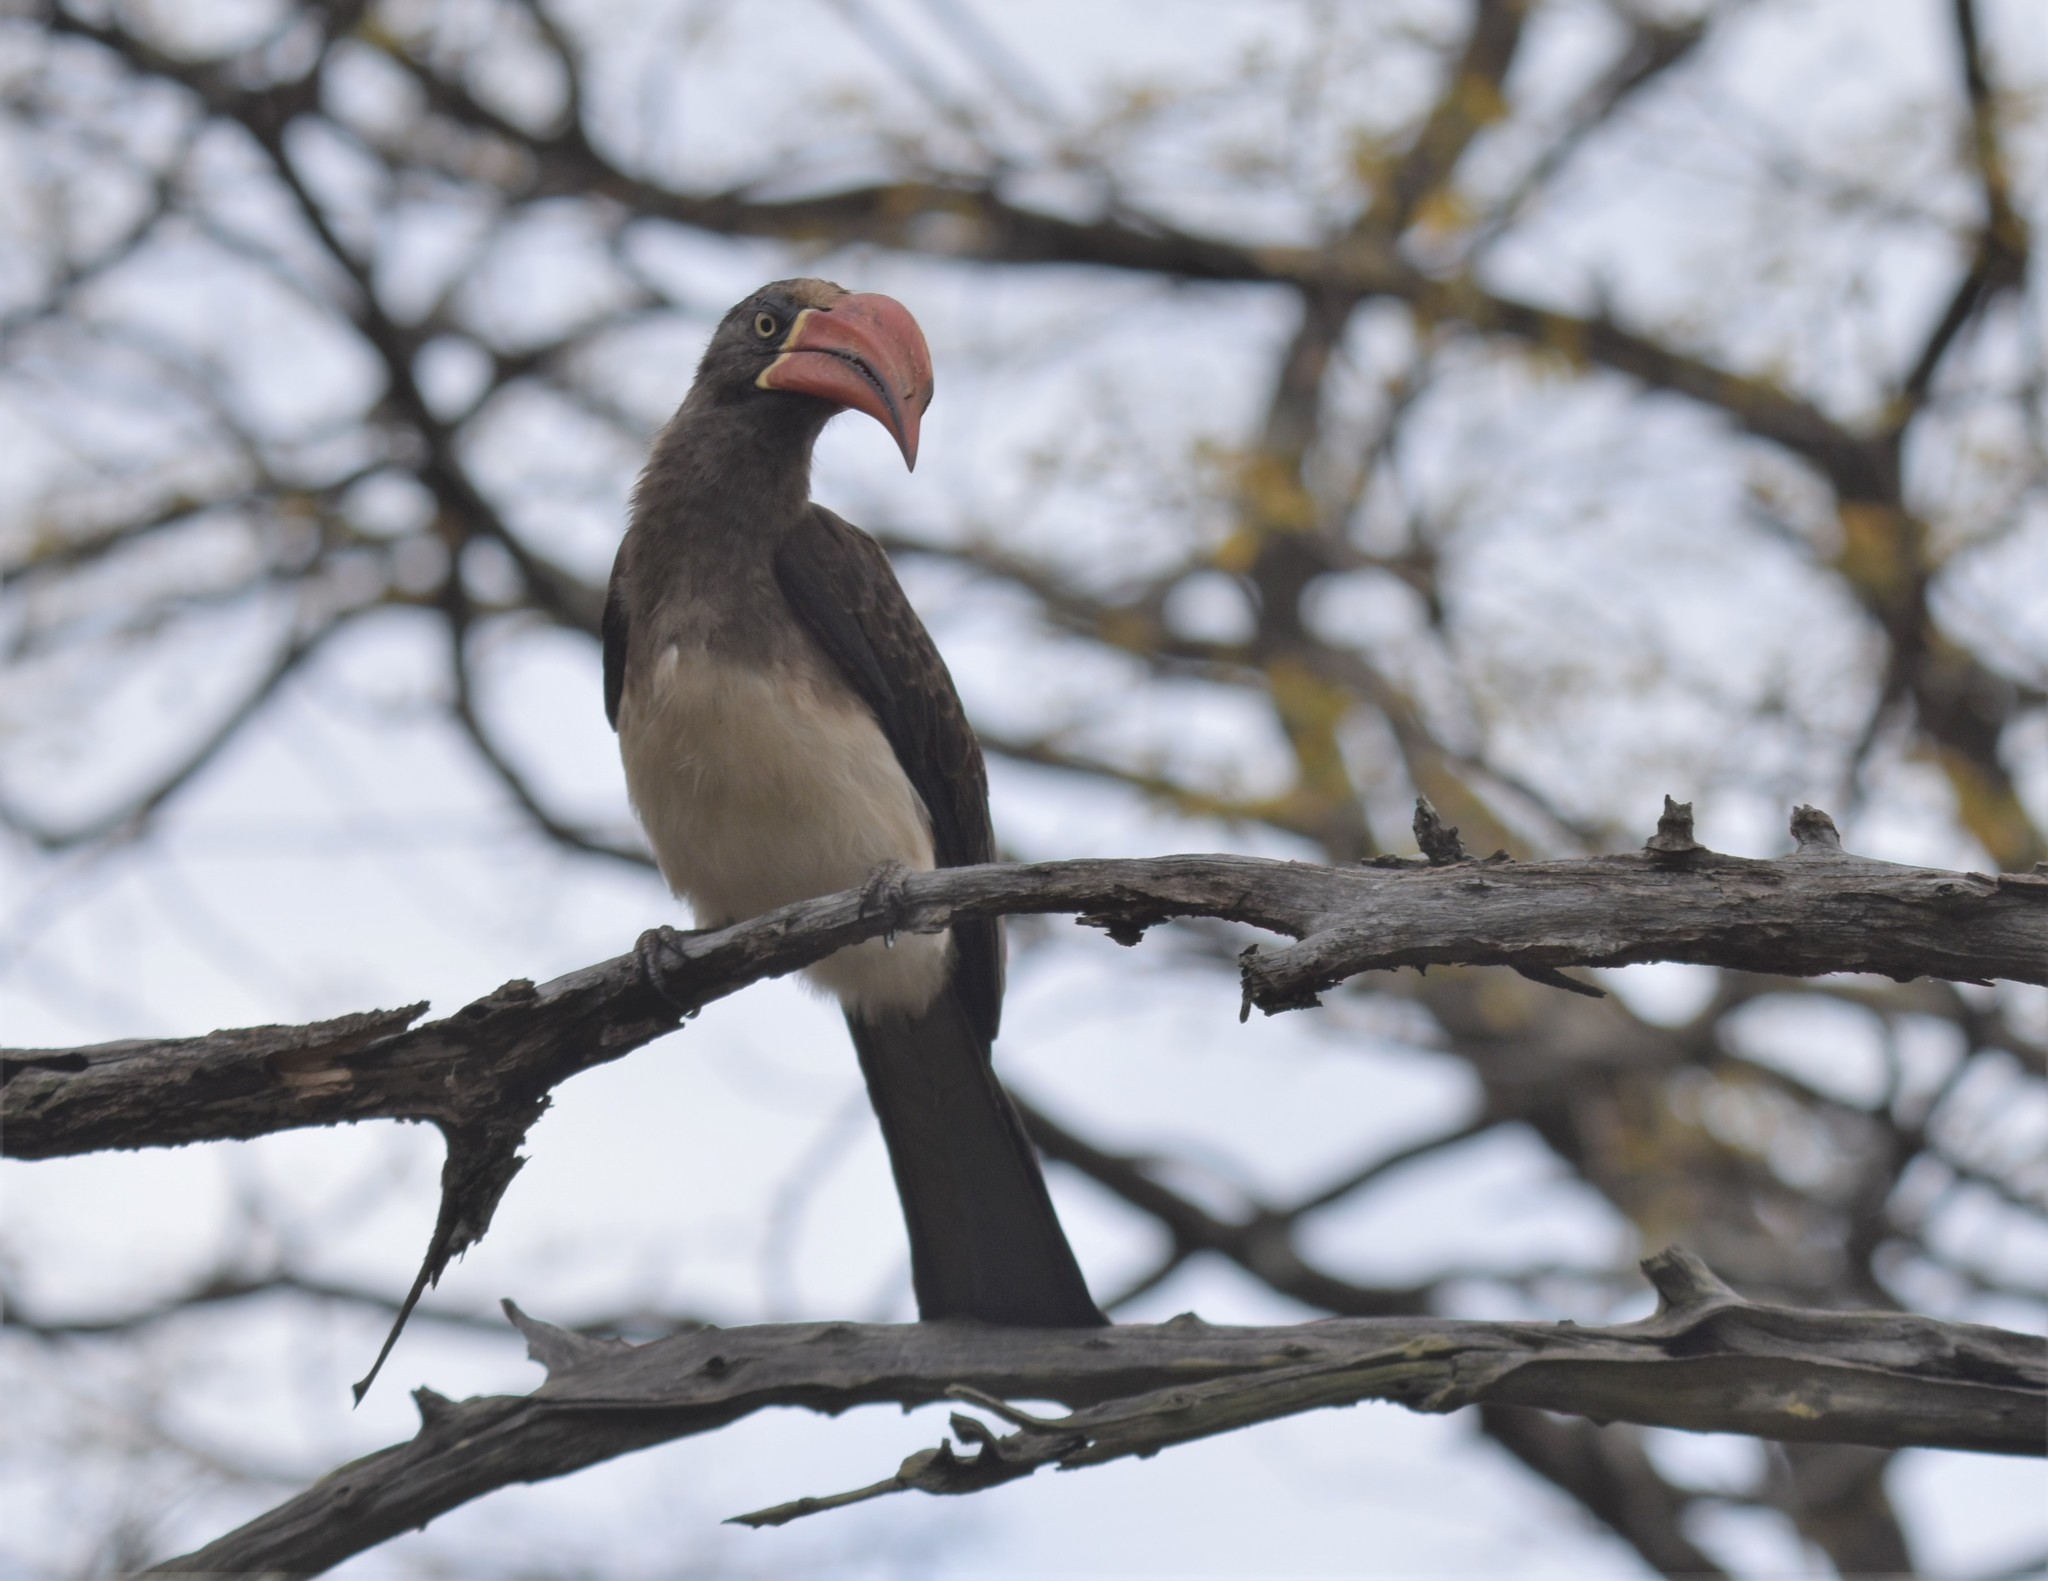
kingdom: Animalia
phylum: Chordata
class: Aves
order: Bucerotiformes
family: Bucerotidae
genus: Lophoceros
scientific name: Lophoceros alboterminatus
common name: Crowned hornbill
